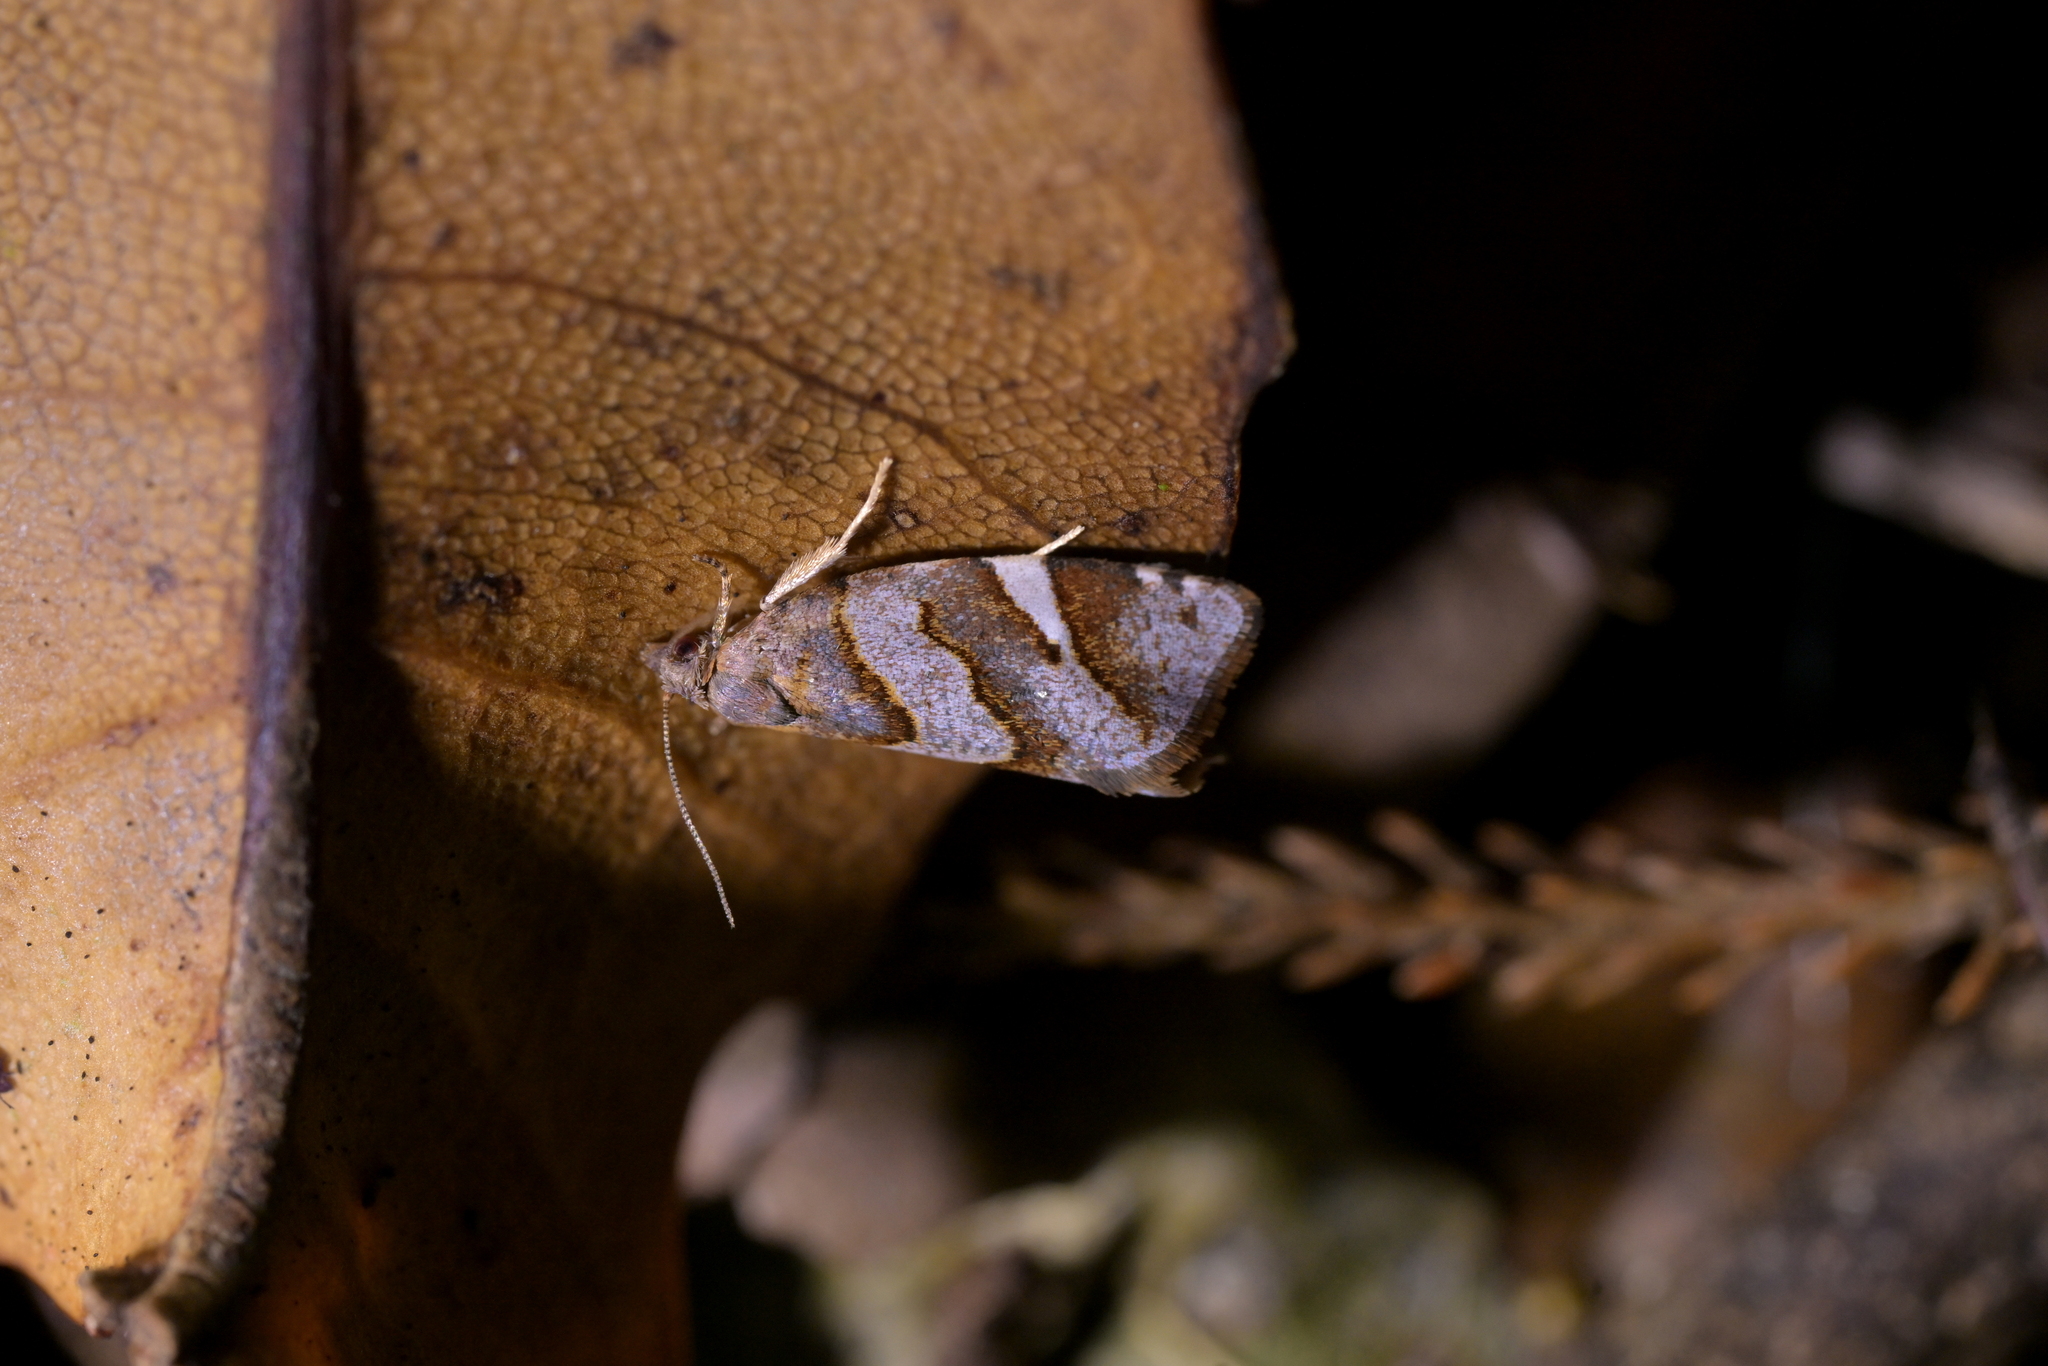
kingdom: Animalia
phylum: Arthropoda
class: Insecta
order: Lepidoptera
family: Tortricidae
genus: Ecclitica
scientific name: Ecclitica torogramma
